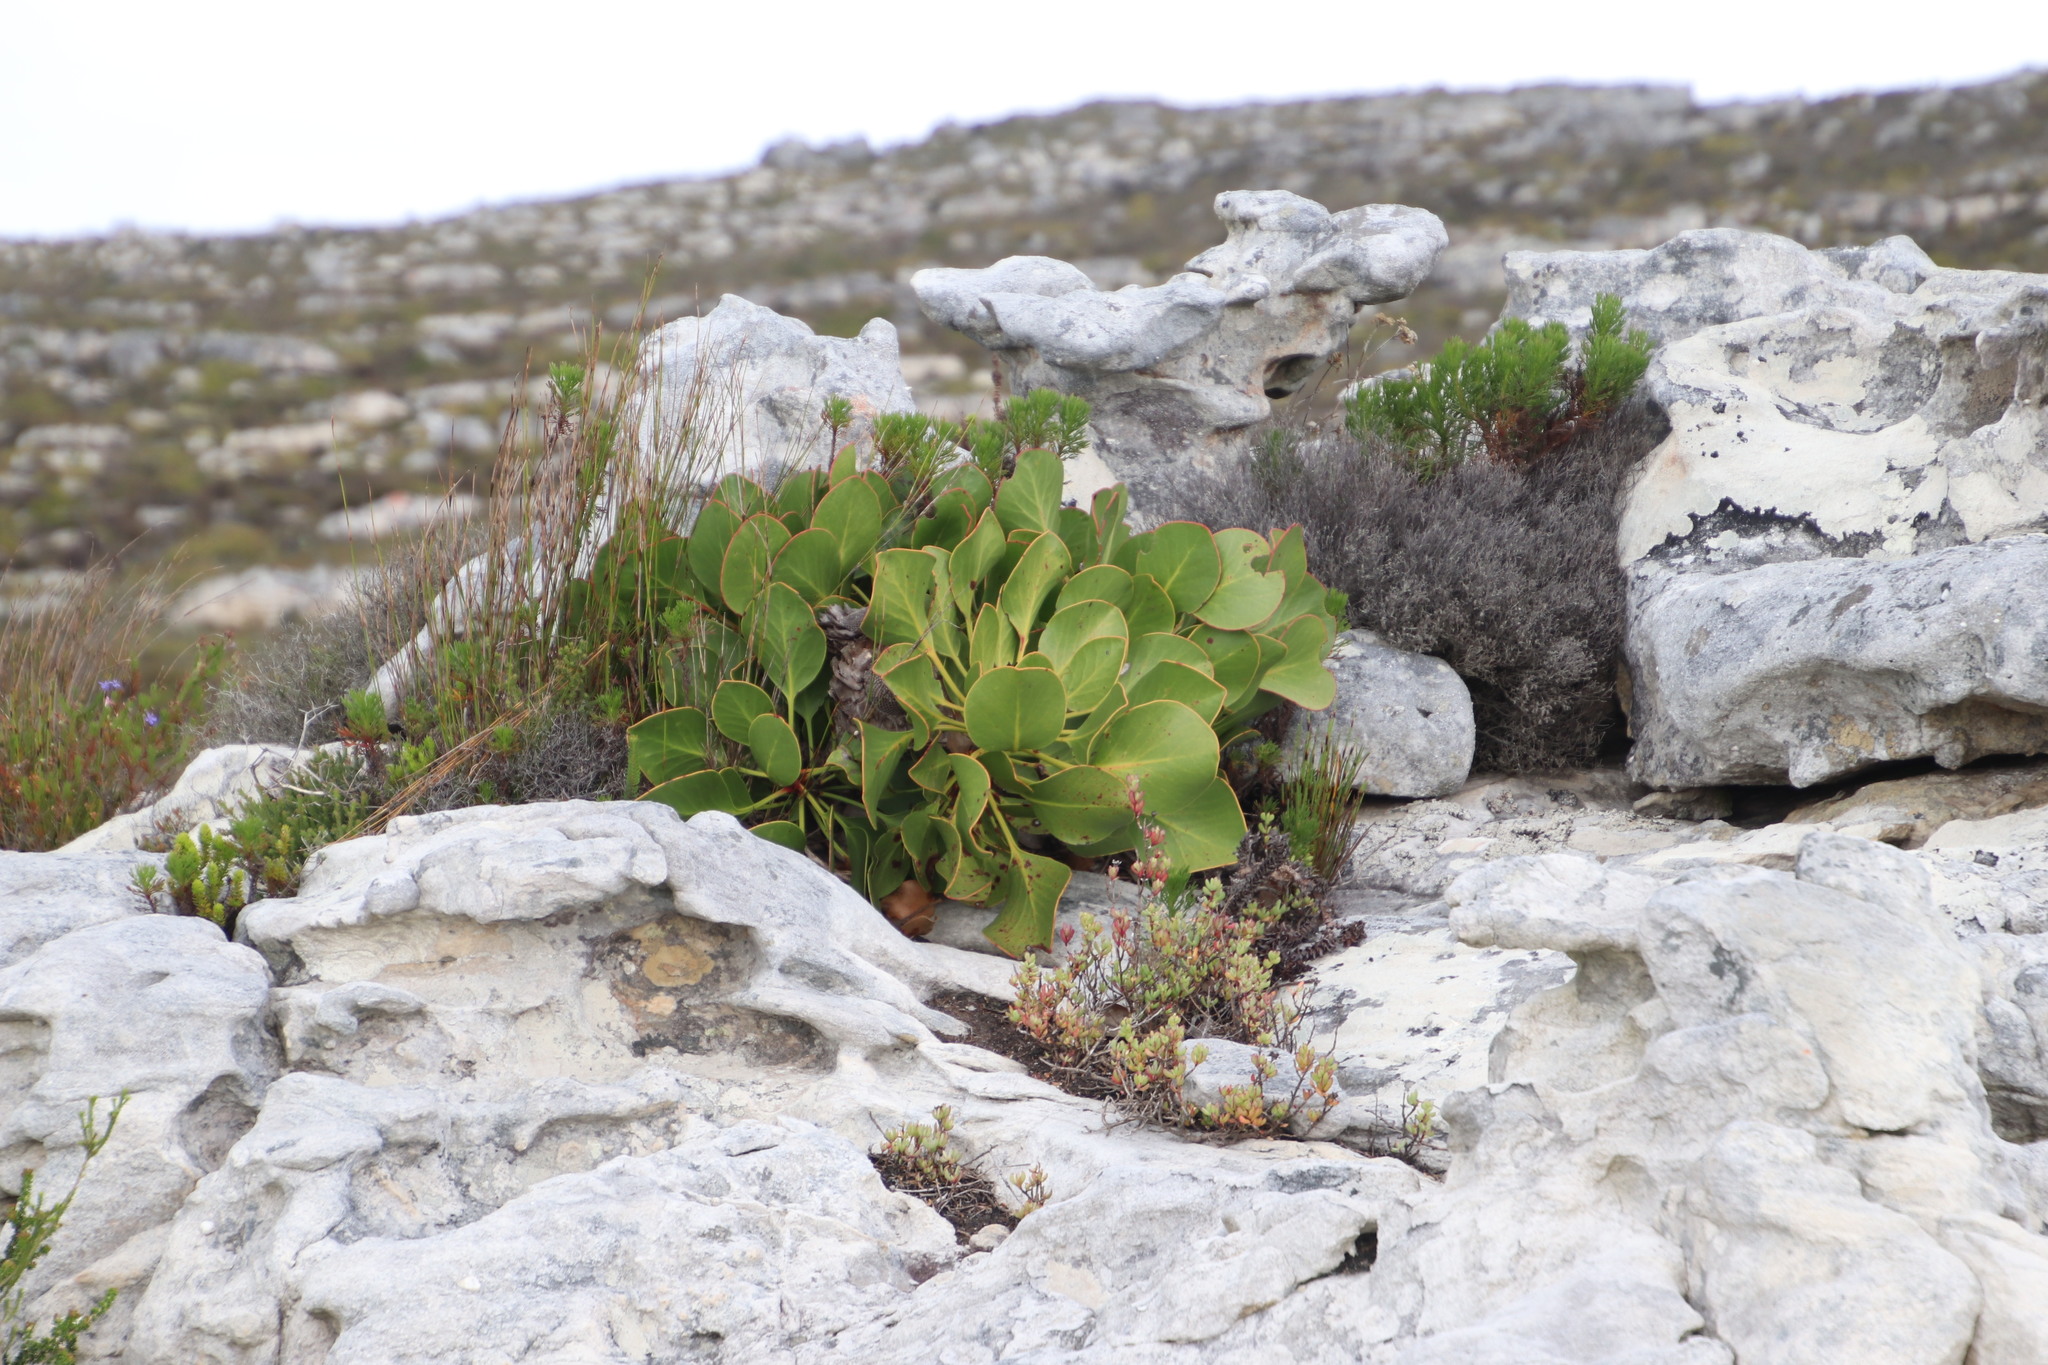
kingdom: Plantae
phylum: Tracheophyta
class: Magnoliopsida
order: Proteales
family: Proteaceae
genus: Protea
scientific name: Protea cynaroides
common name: King protea
